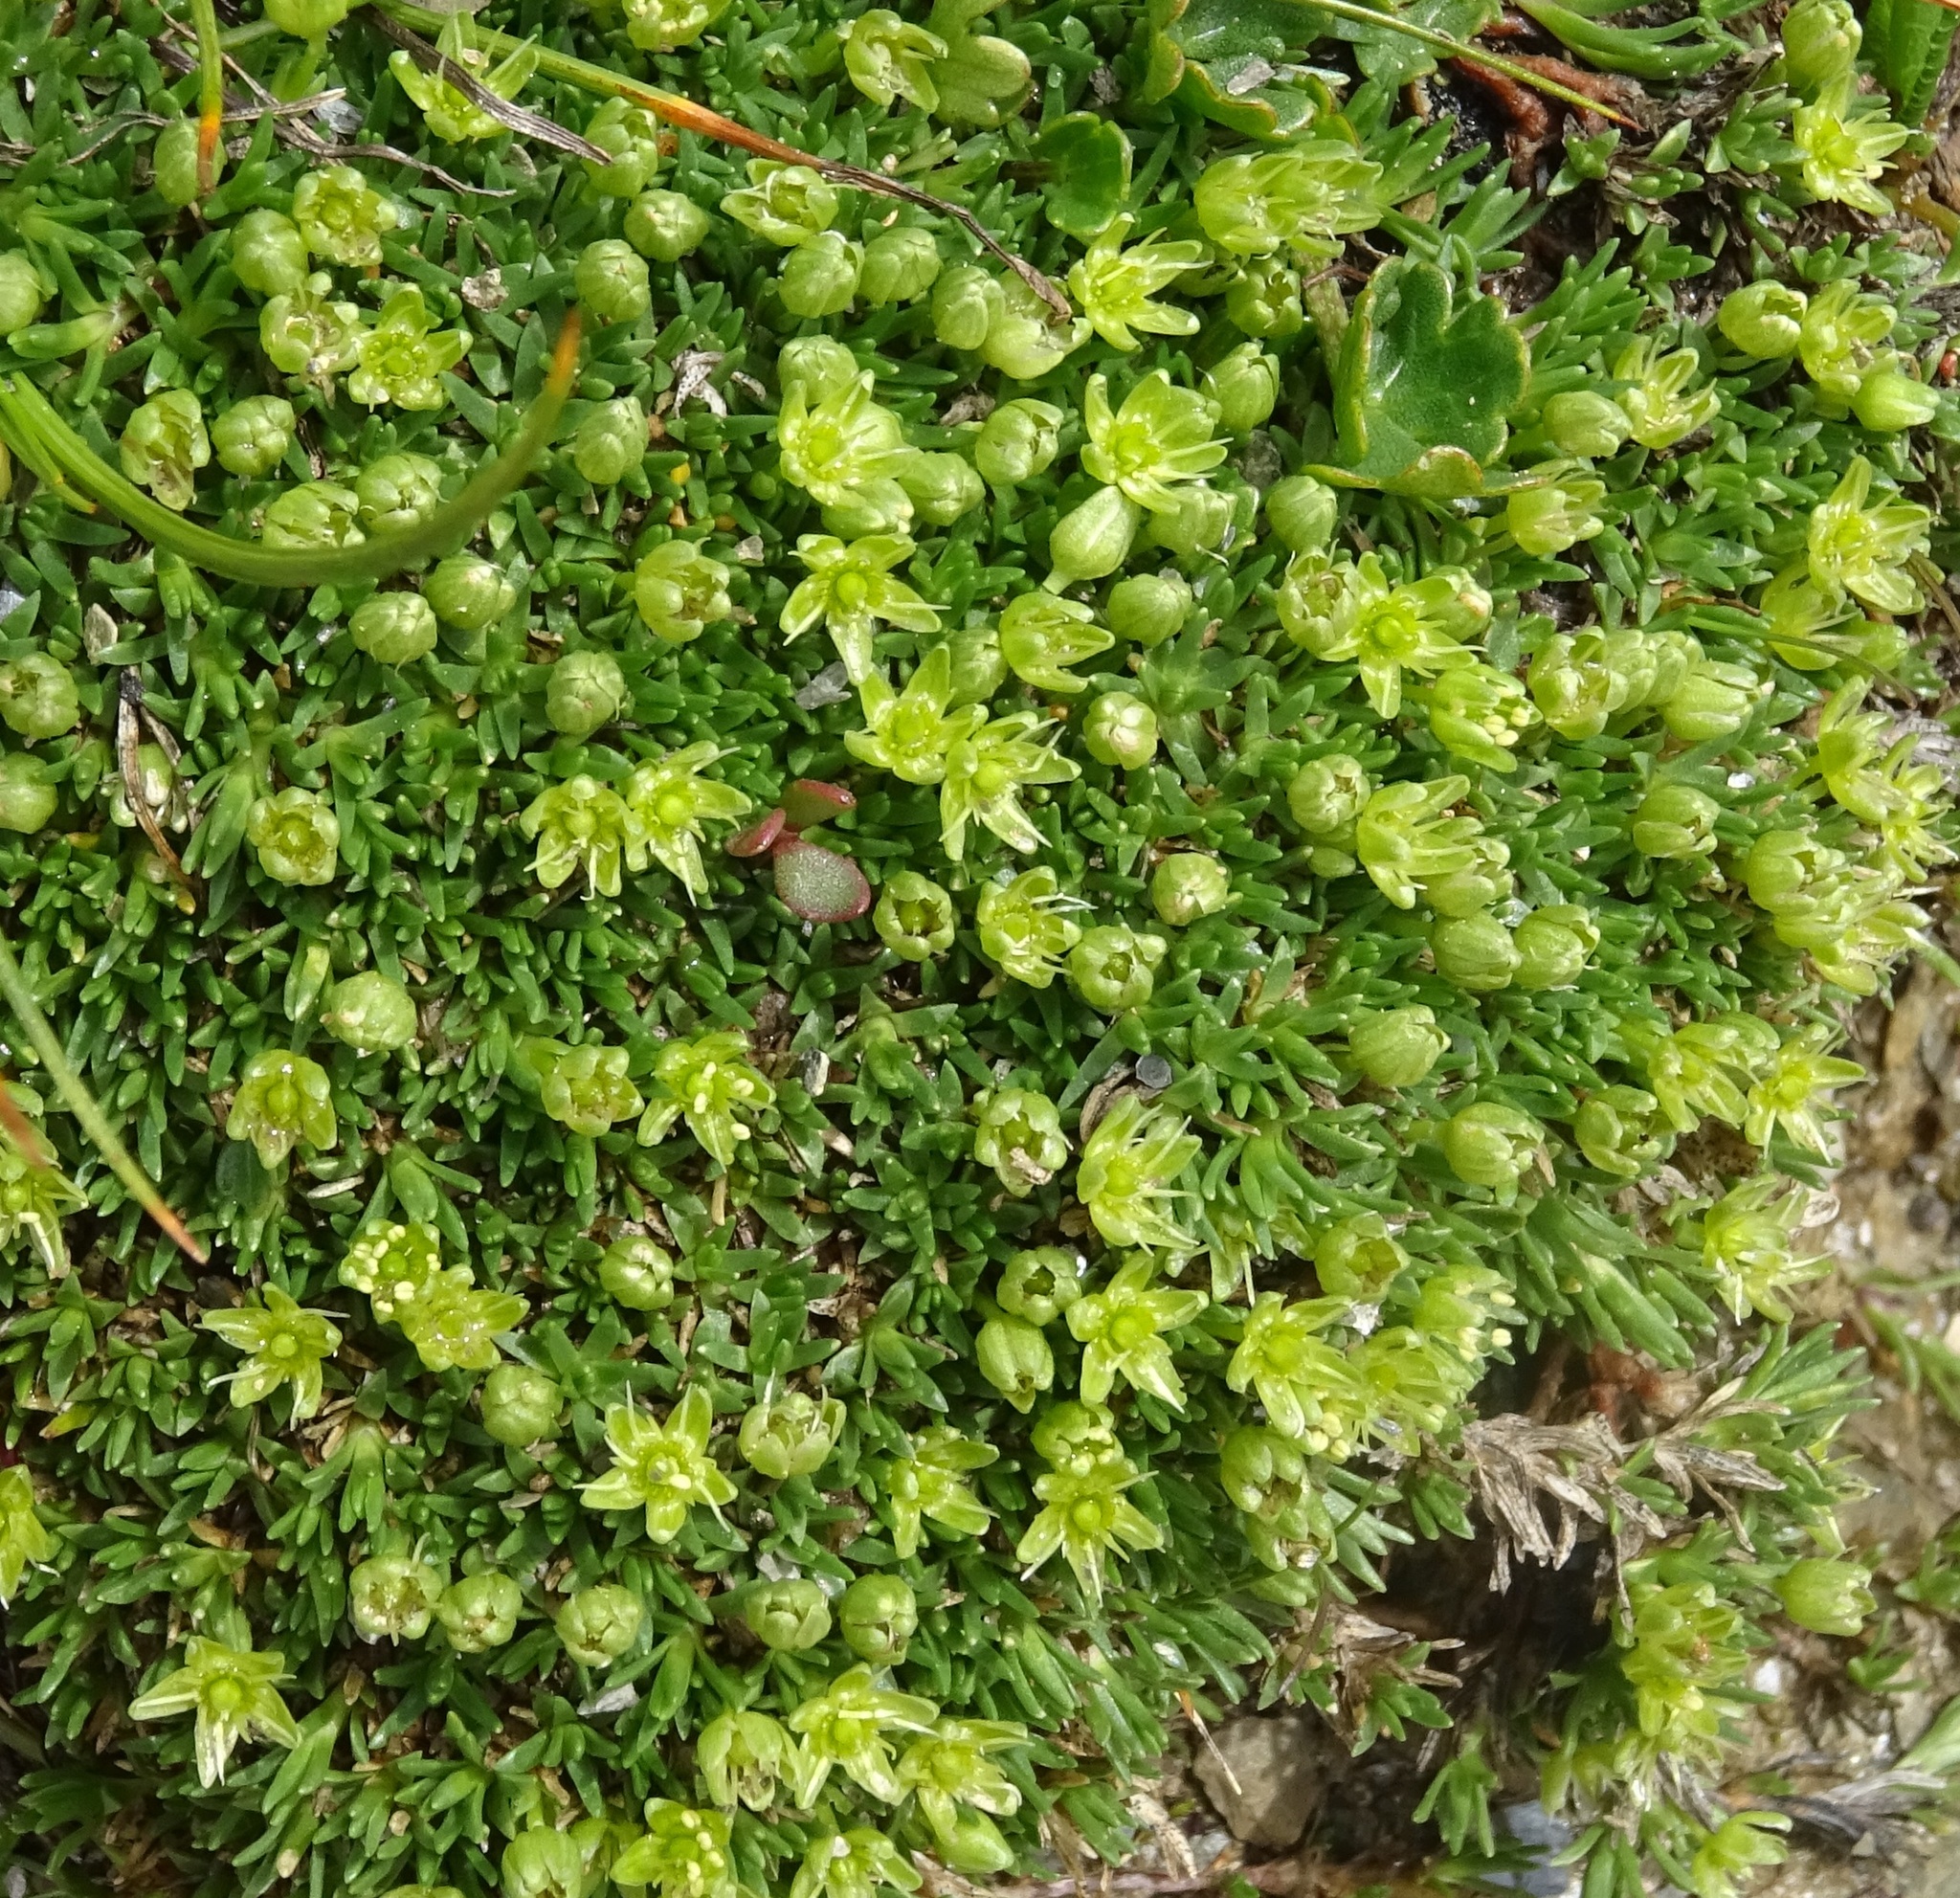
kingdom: Plantae
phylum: Tracheophyta
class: Magnoliopsida
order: Caryophyllales
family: Caryophyllaceae
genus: Cherleria
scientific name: Cherleria sedoides
